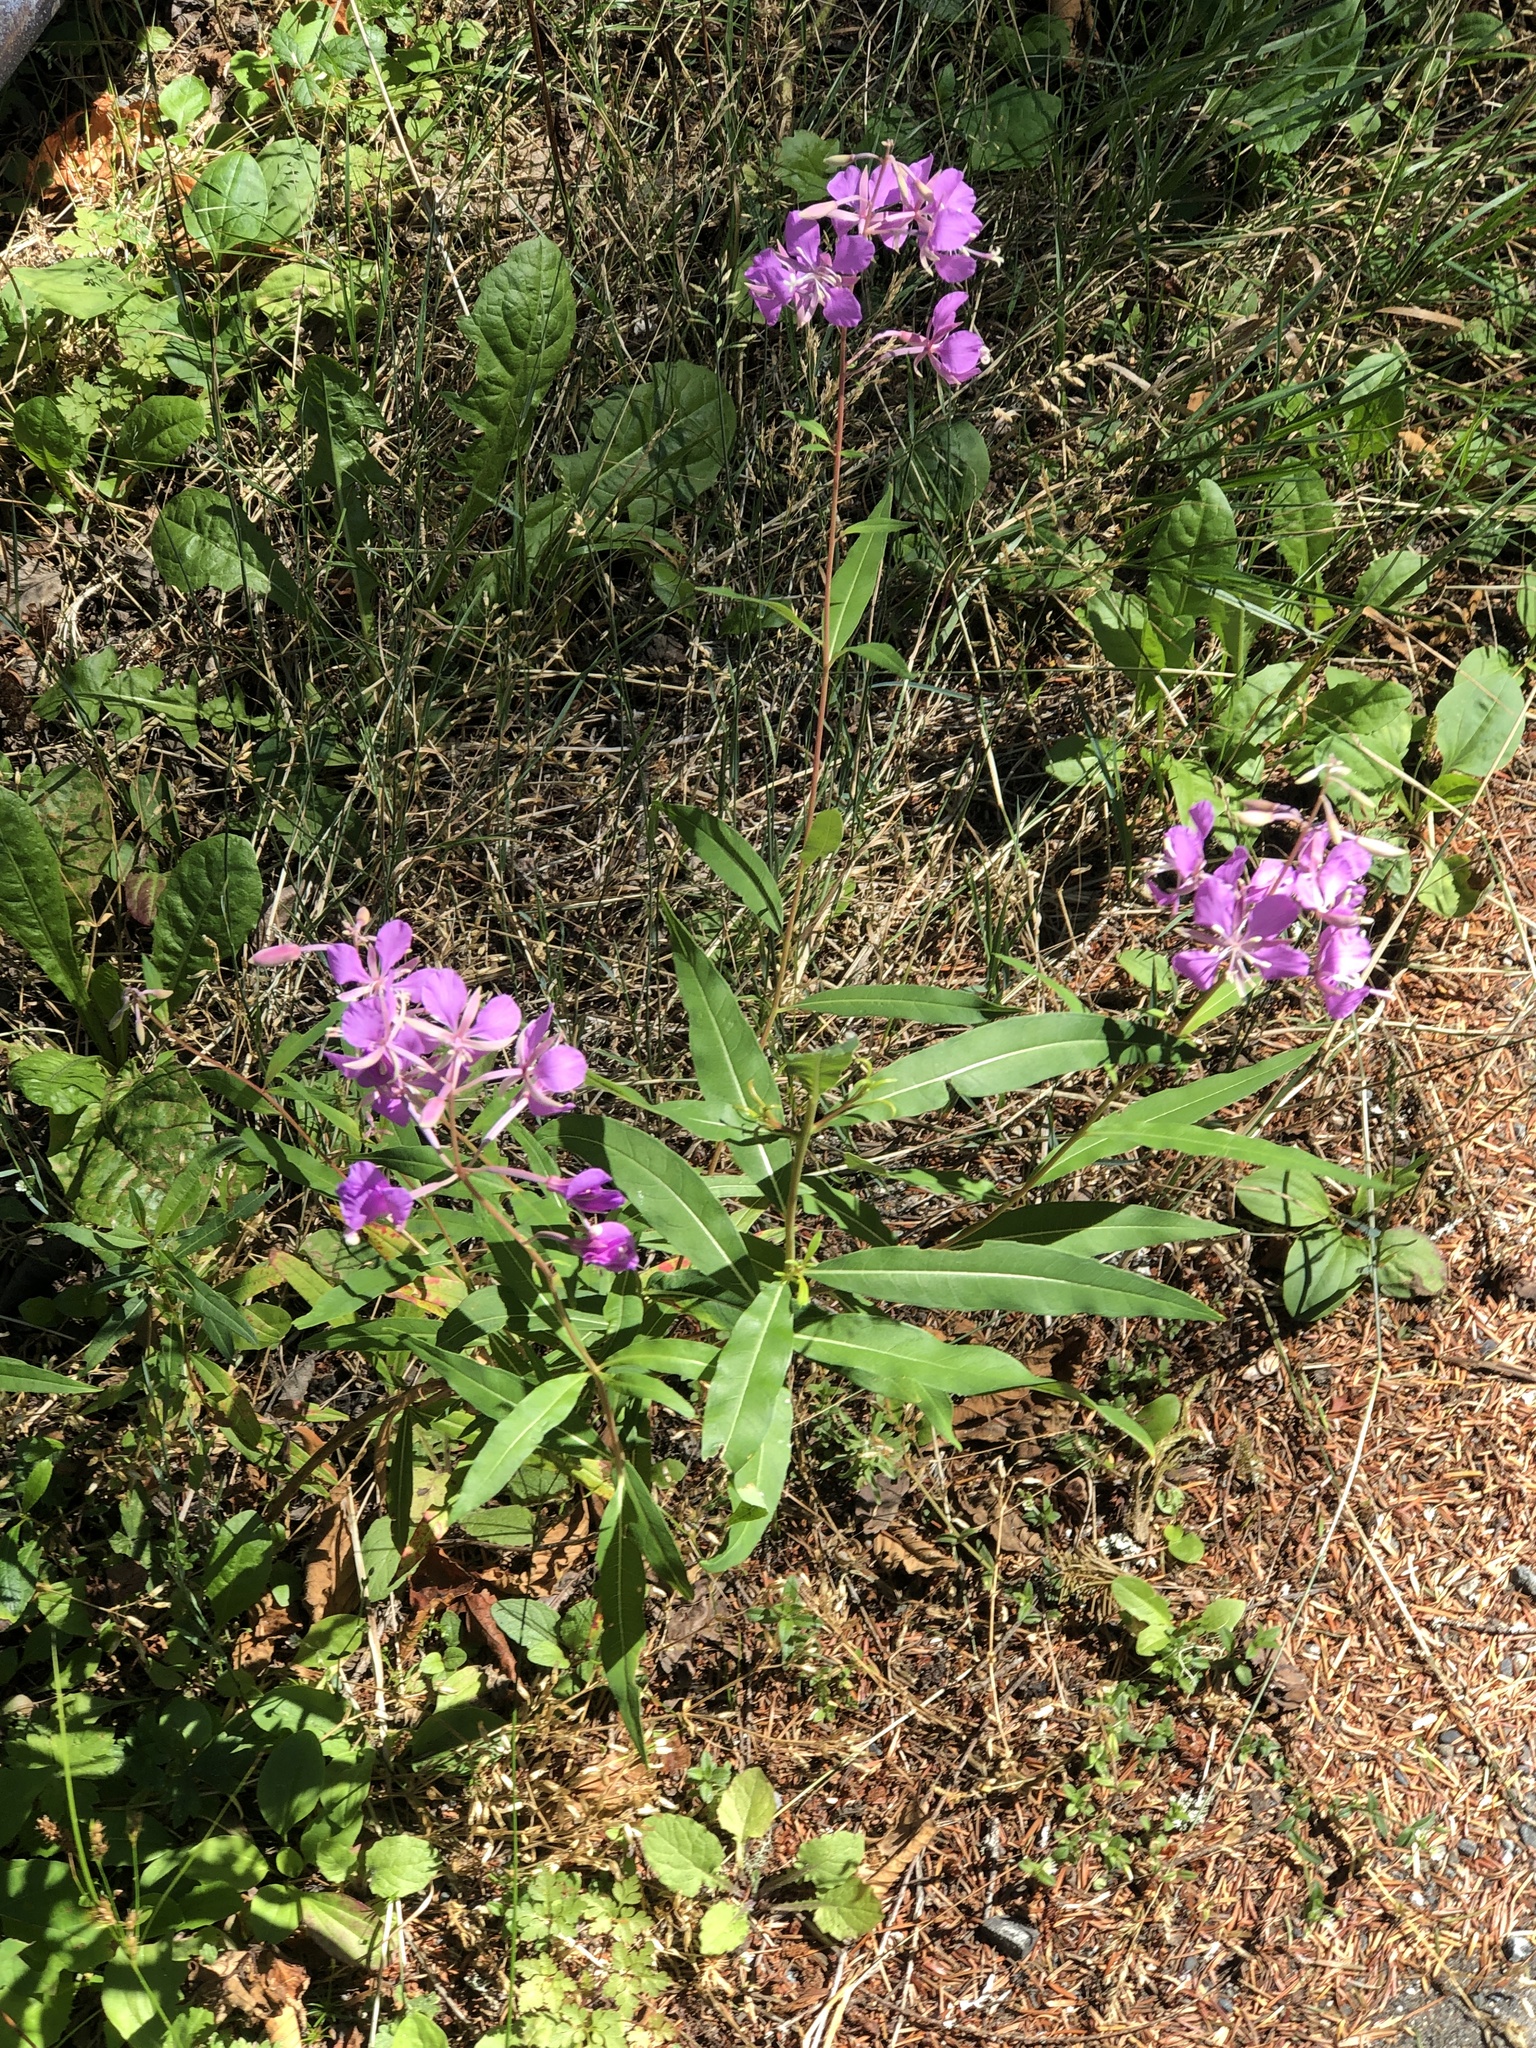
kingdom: Plantae
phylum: Tracheophyta
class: Magnoliopsida
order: Myrtales
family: Onagraceae
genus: Chamaenerion
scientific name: Chamaenerion angustifolium
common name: Fireweed
